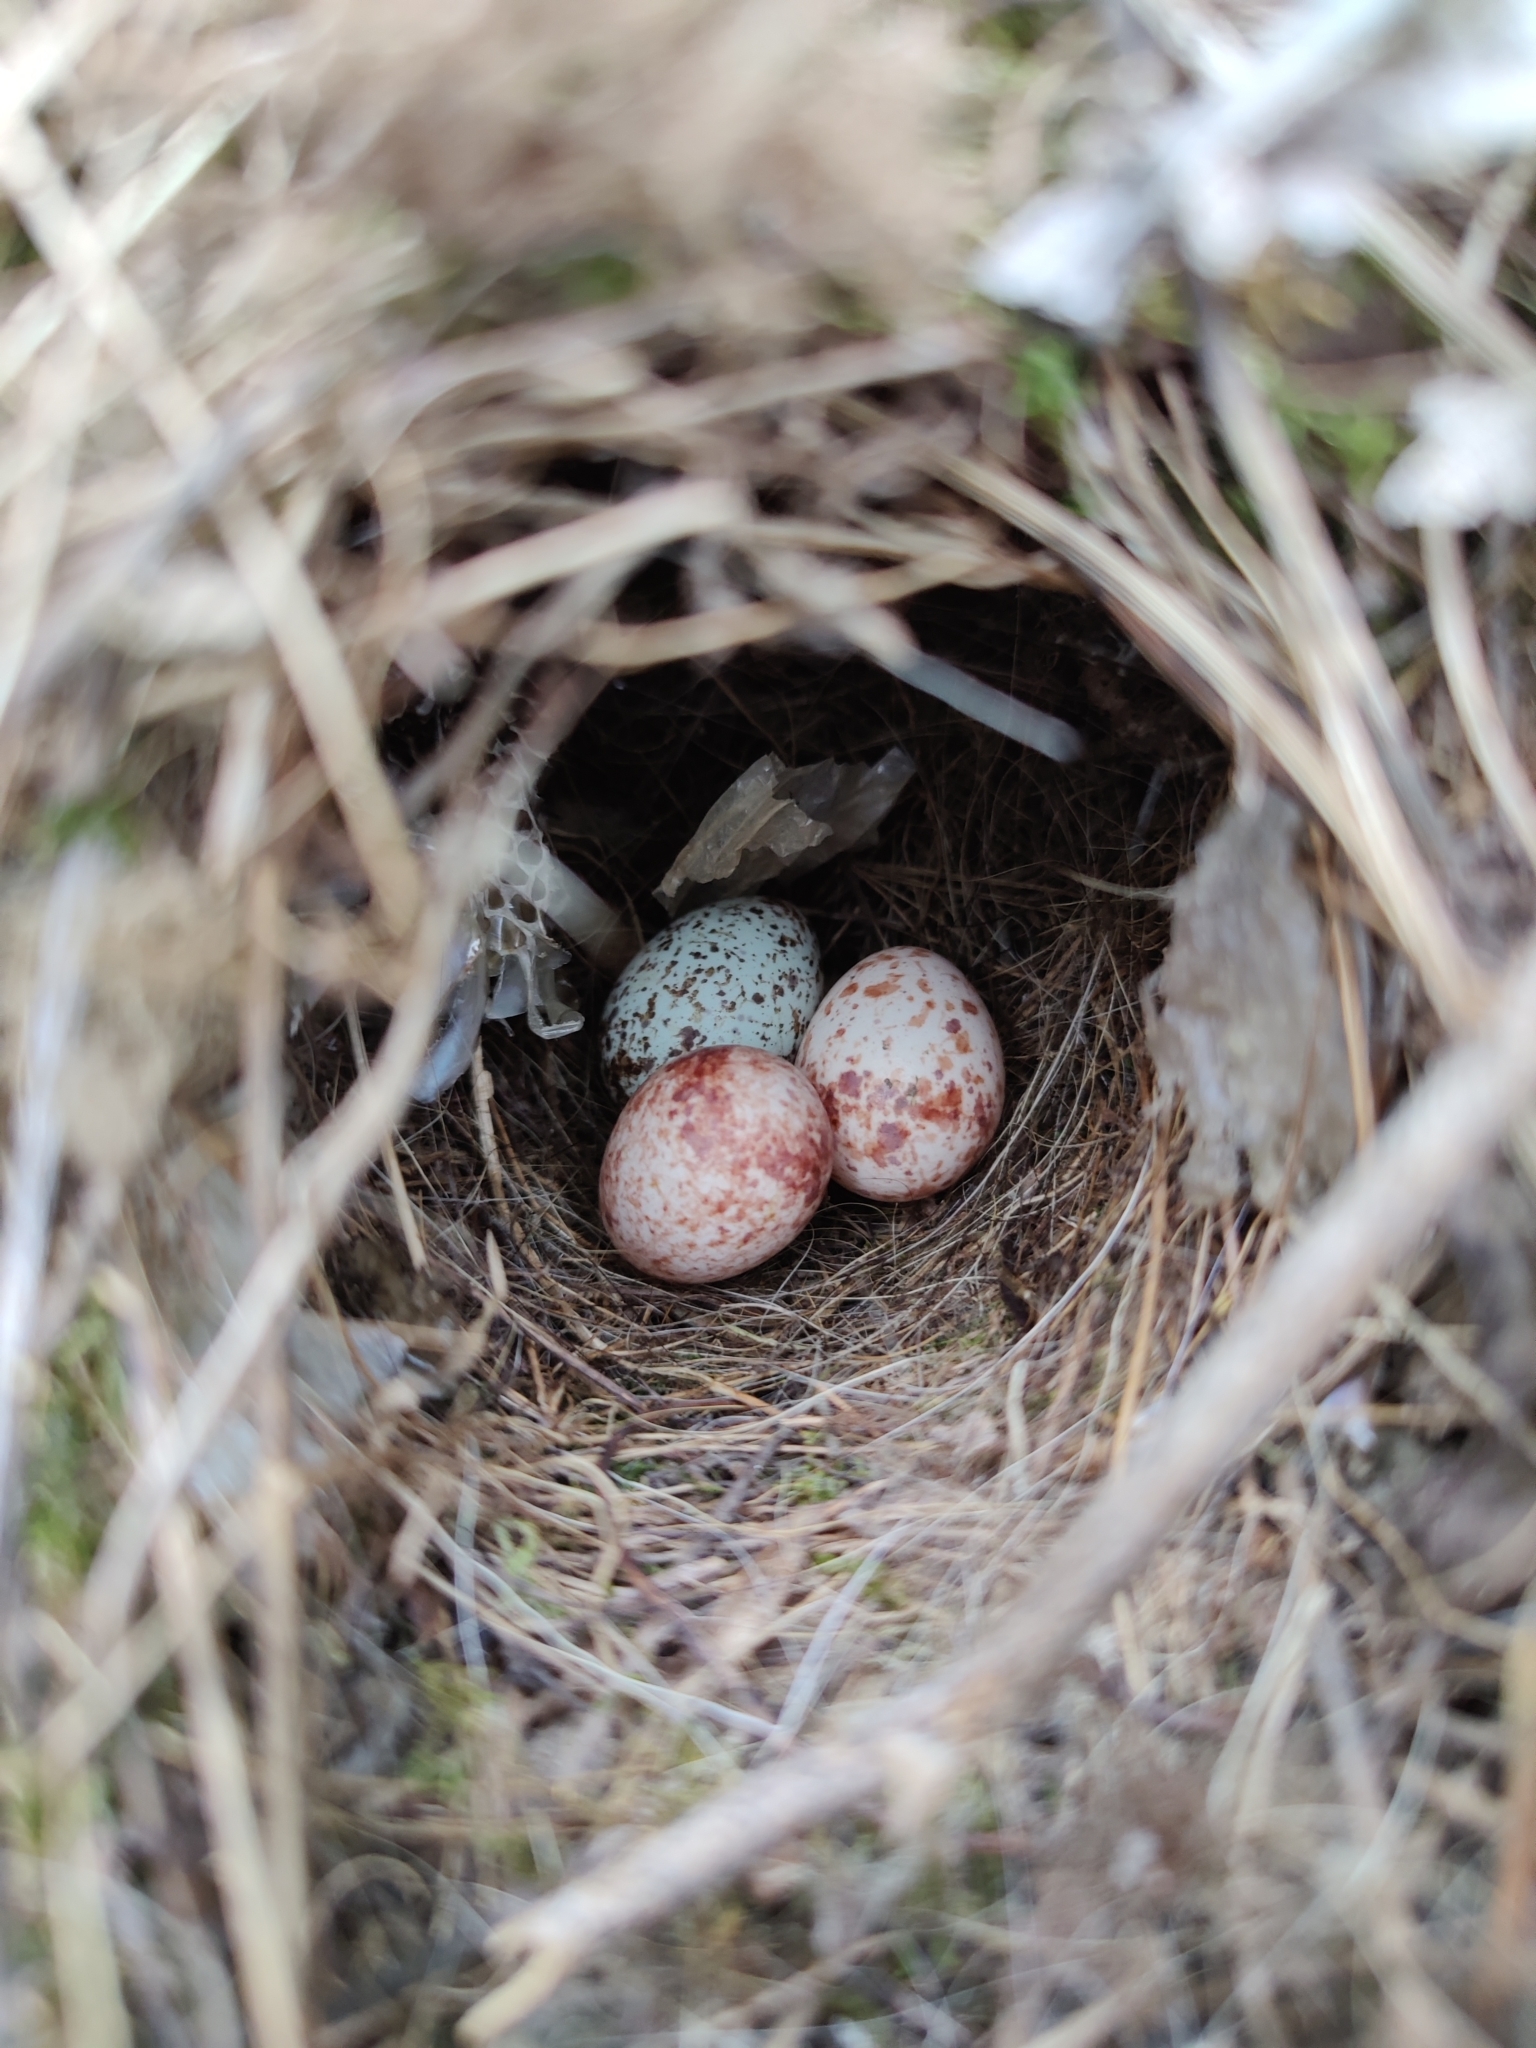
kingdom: Animalia
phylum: Chordata
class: Aves
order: Passeriformes
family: Troglodytidae
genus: Thryothorus
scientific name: Thryothorus ludovicianus
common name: Carolina wren
